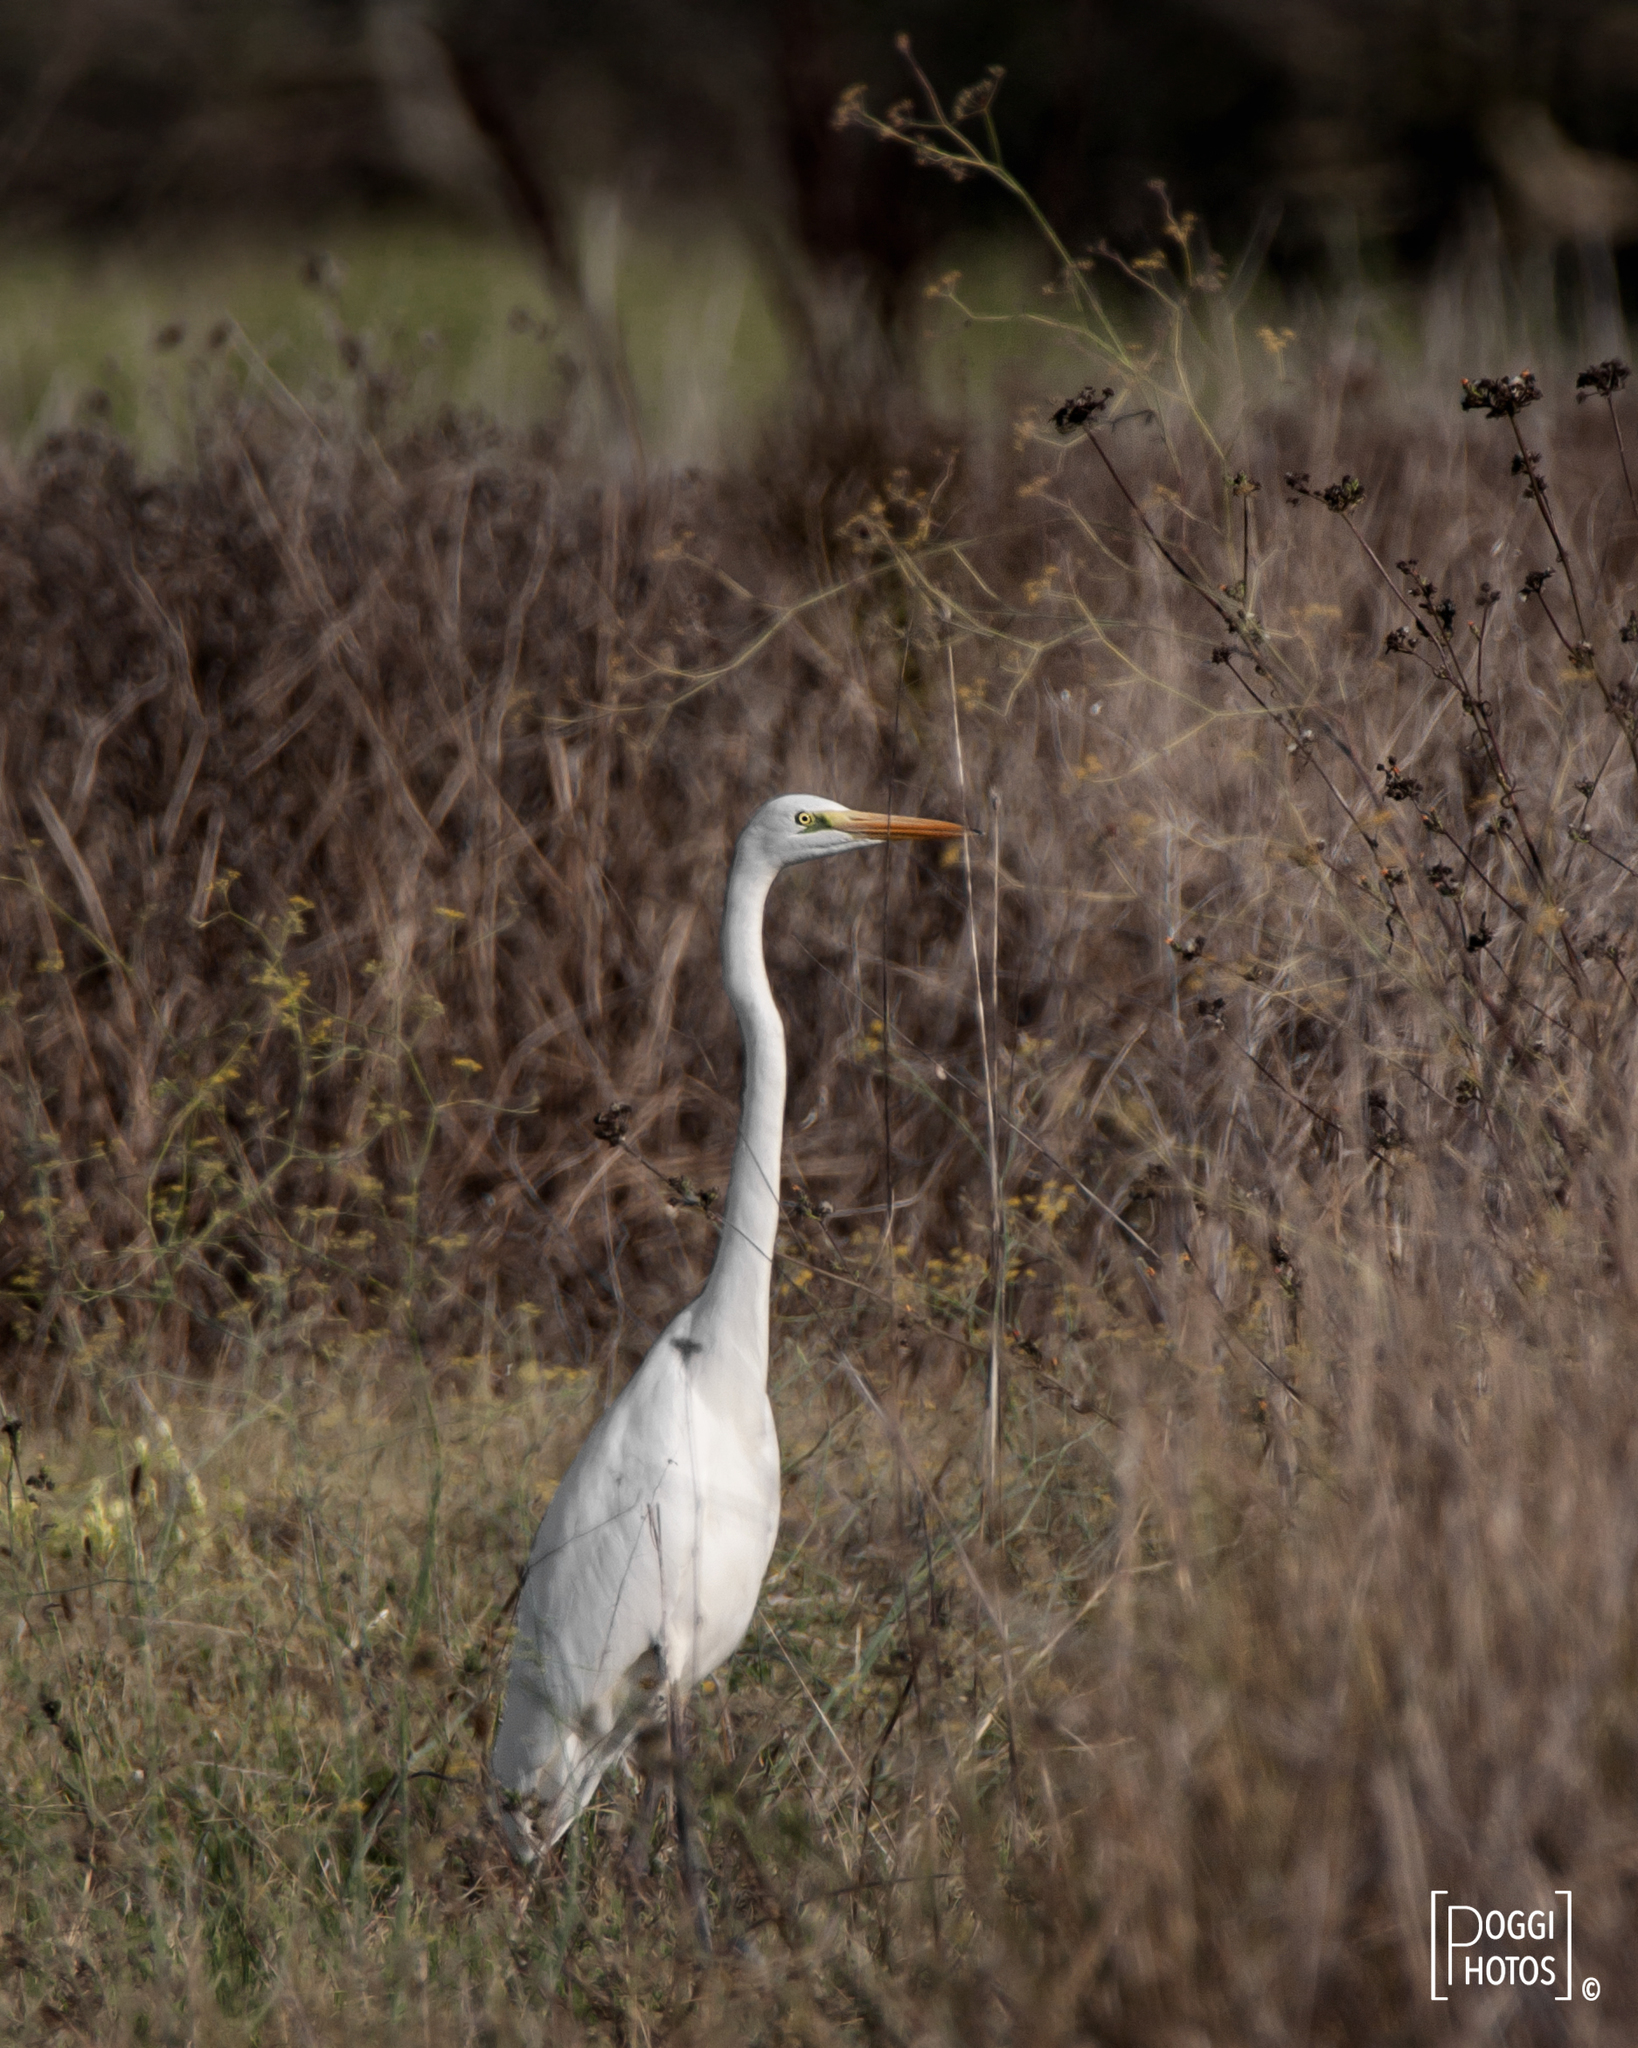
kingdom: Animalia
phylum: Chordata
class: Aves
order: Pelecaniformes
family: Ardeidae
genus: Ardea
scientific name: Ardea alba
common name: Great egret
